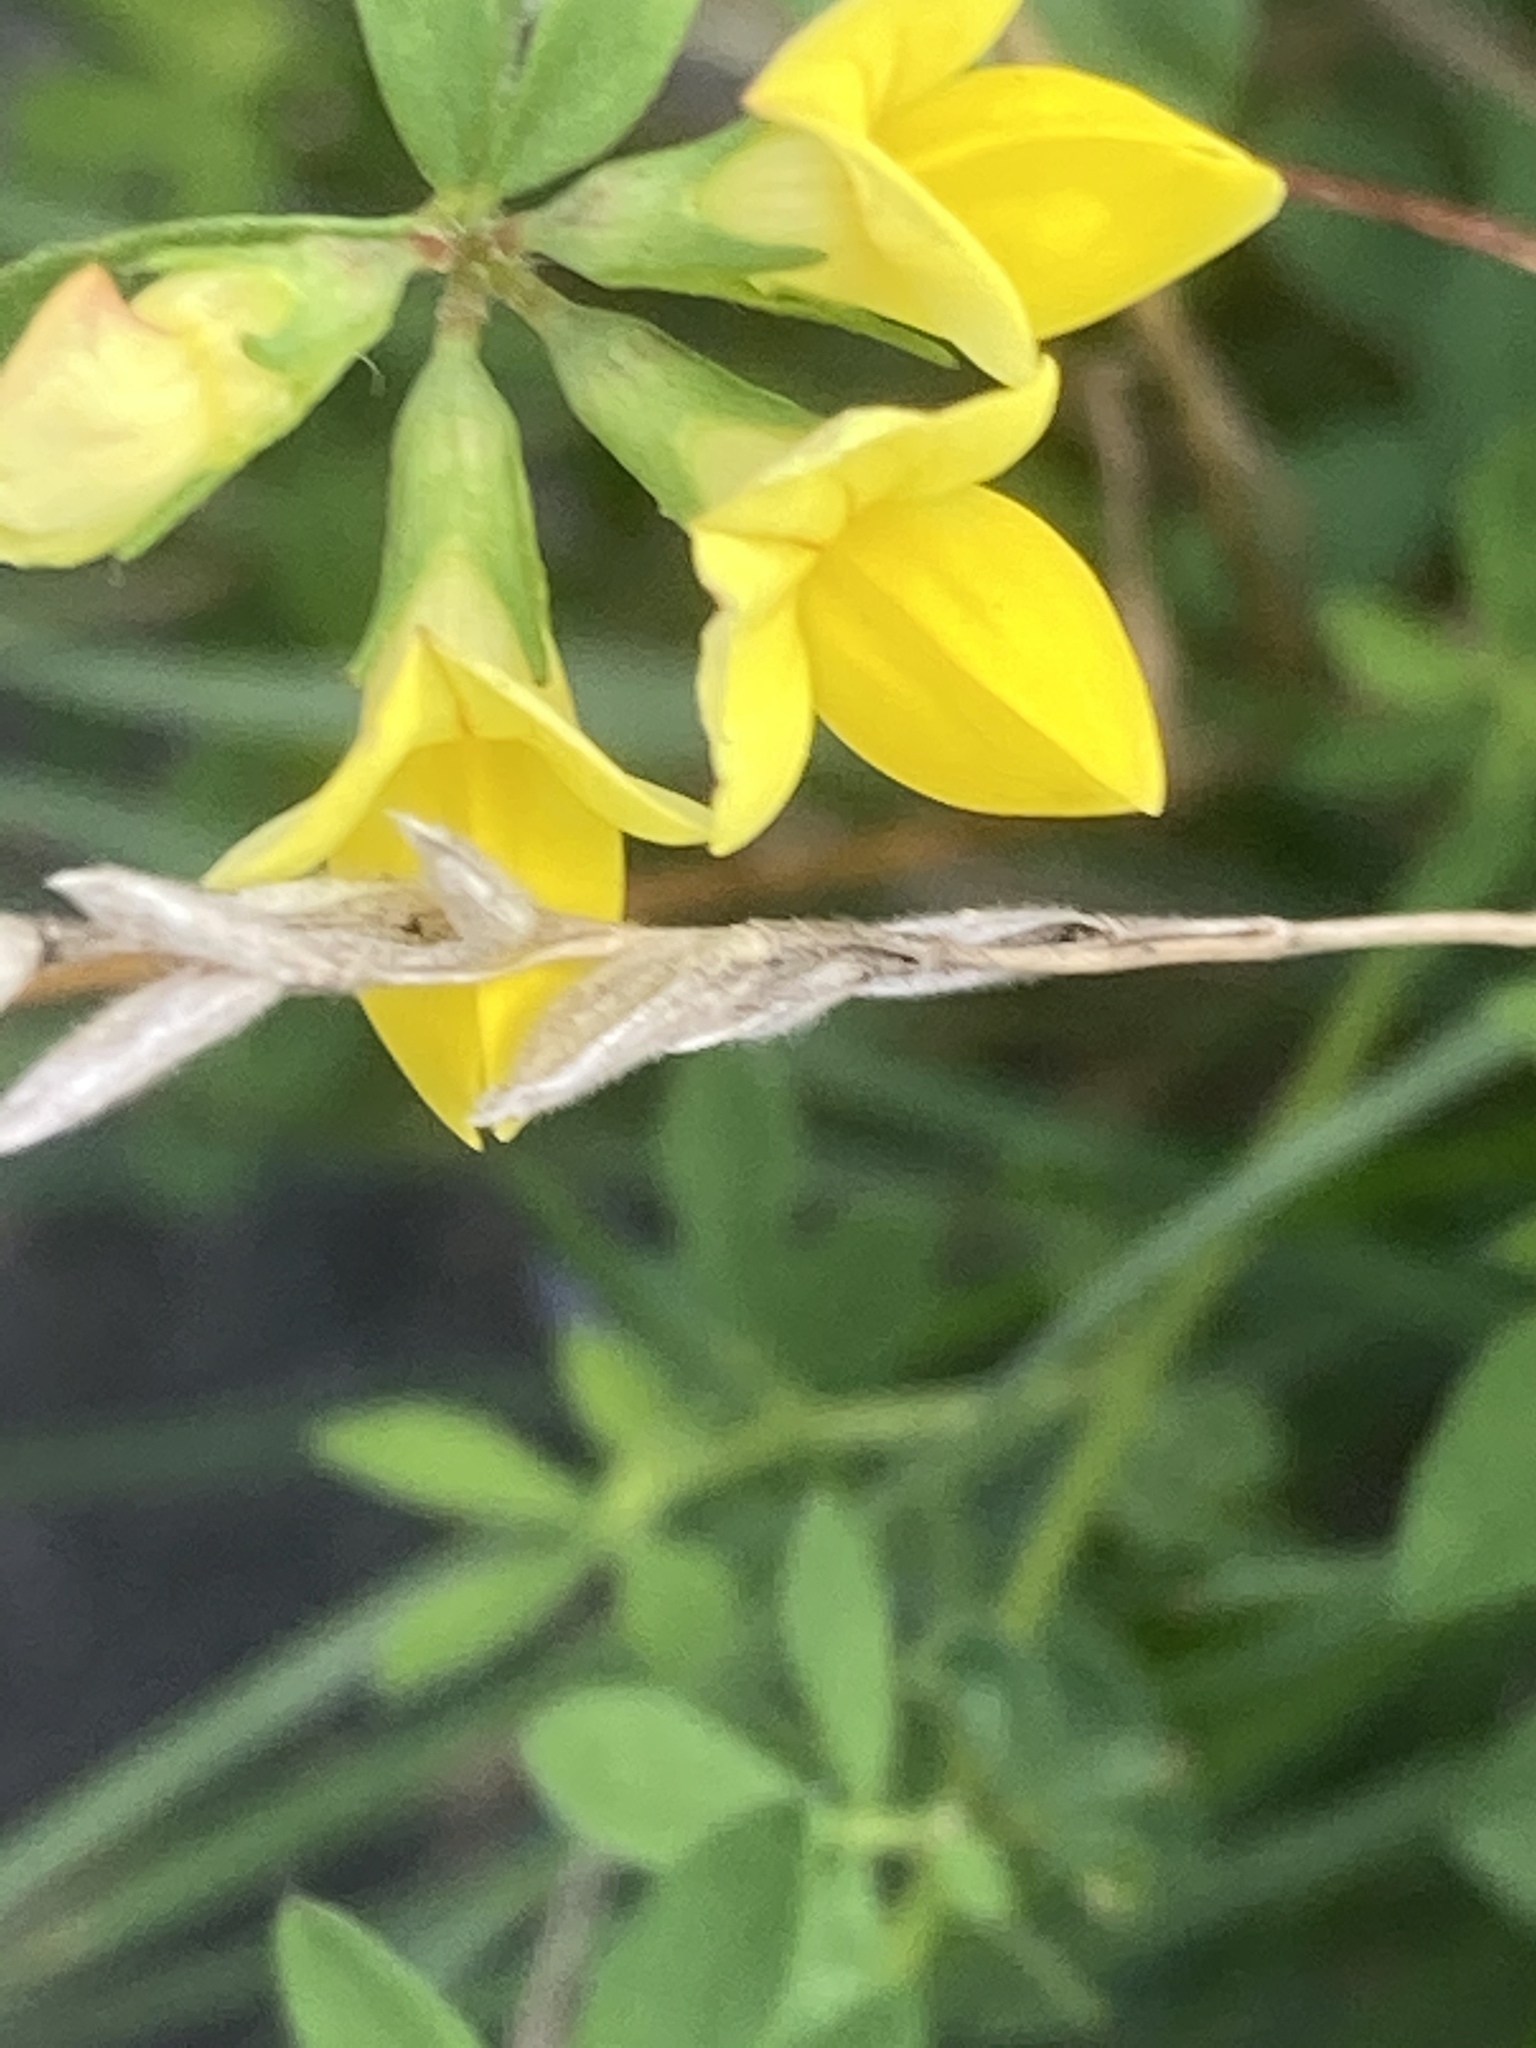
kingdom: Plantae
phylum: Tracheophyta
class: Magnoliopsida
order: Fabales
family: Fabaceae
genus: Lotus
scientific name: Lotus corniculatus
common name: Common bird's-foot-trefoil
